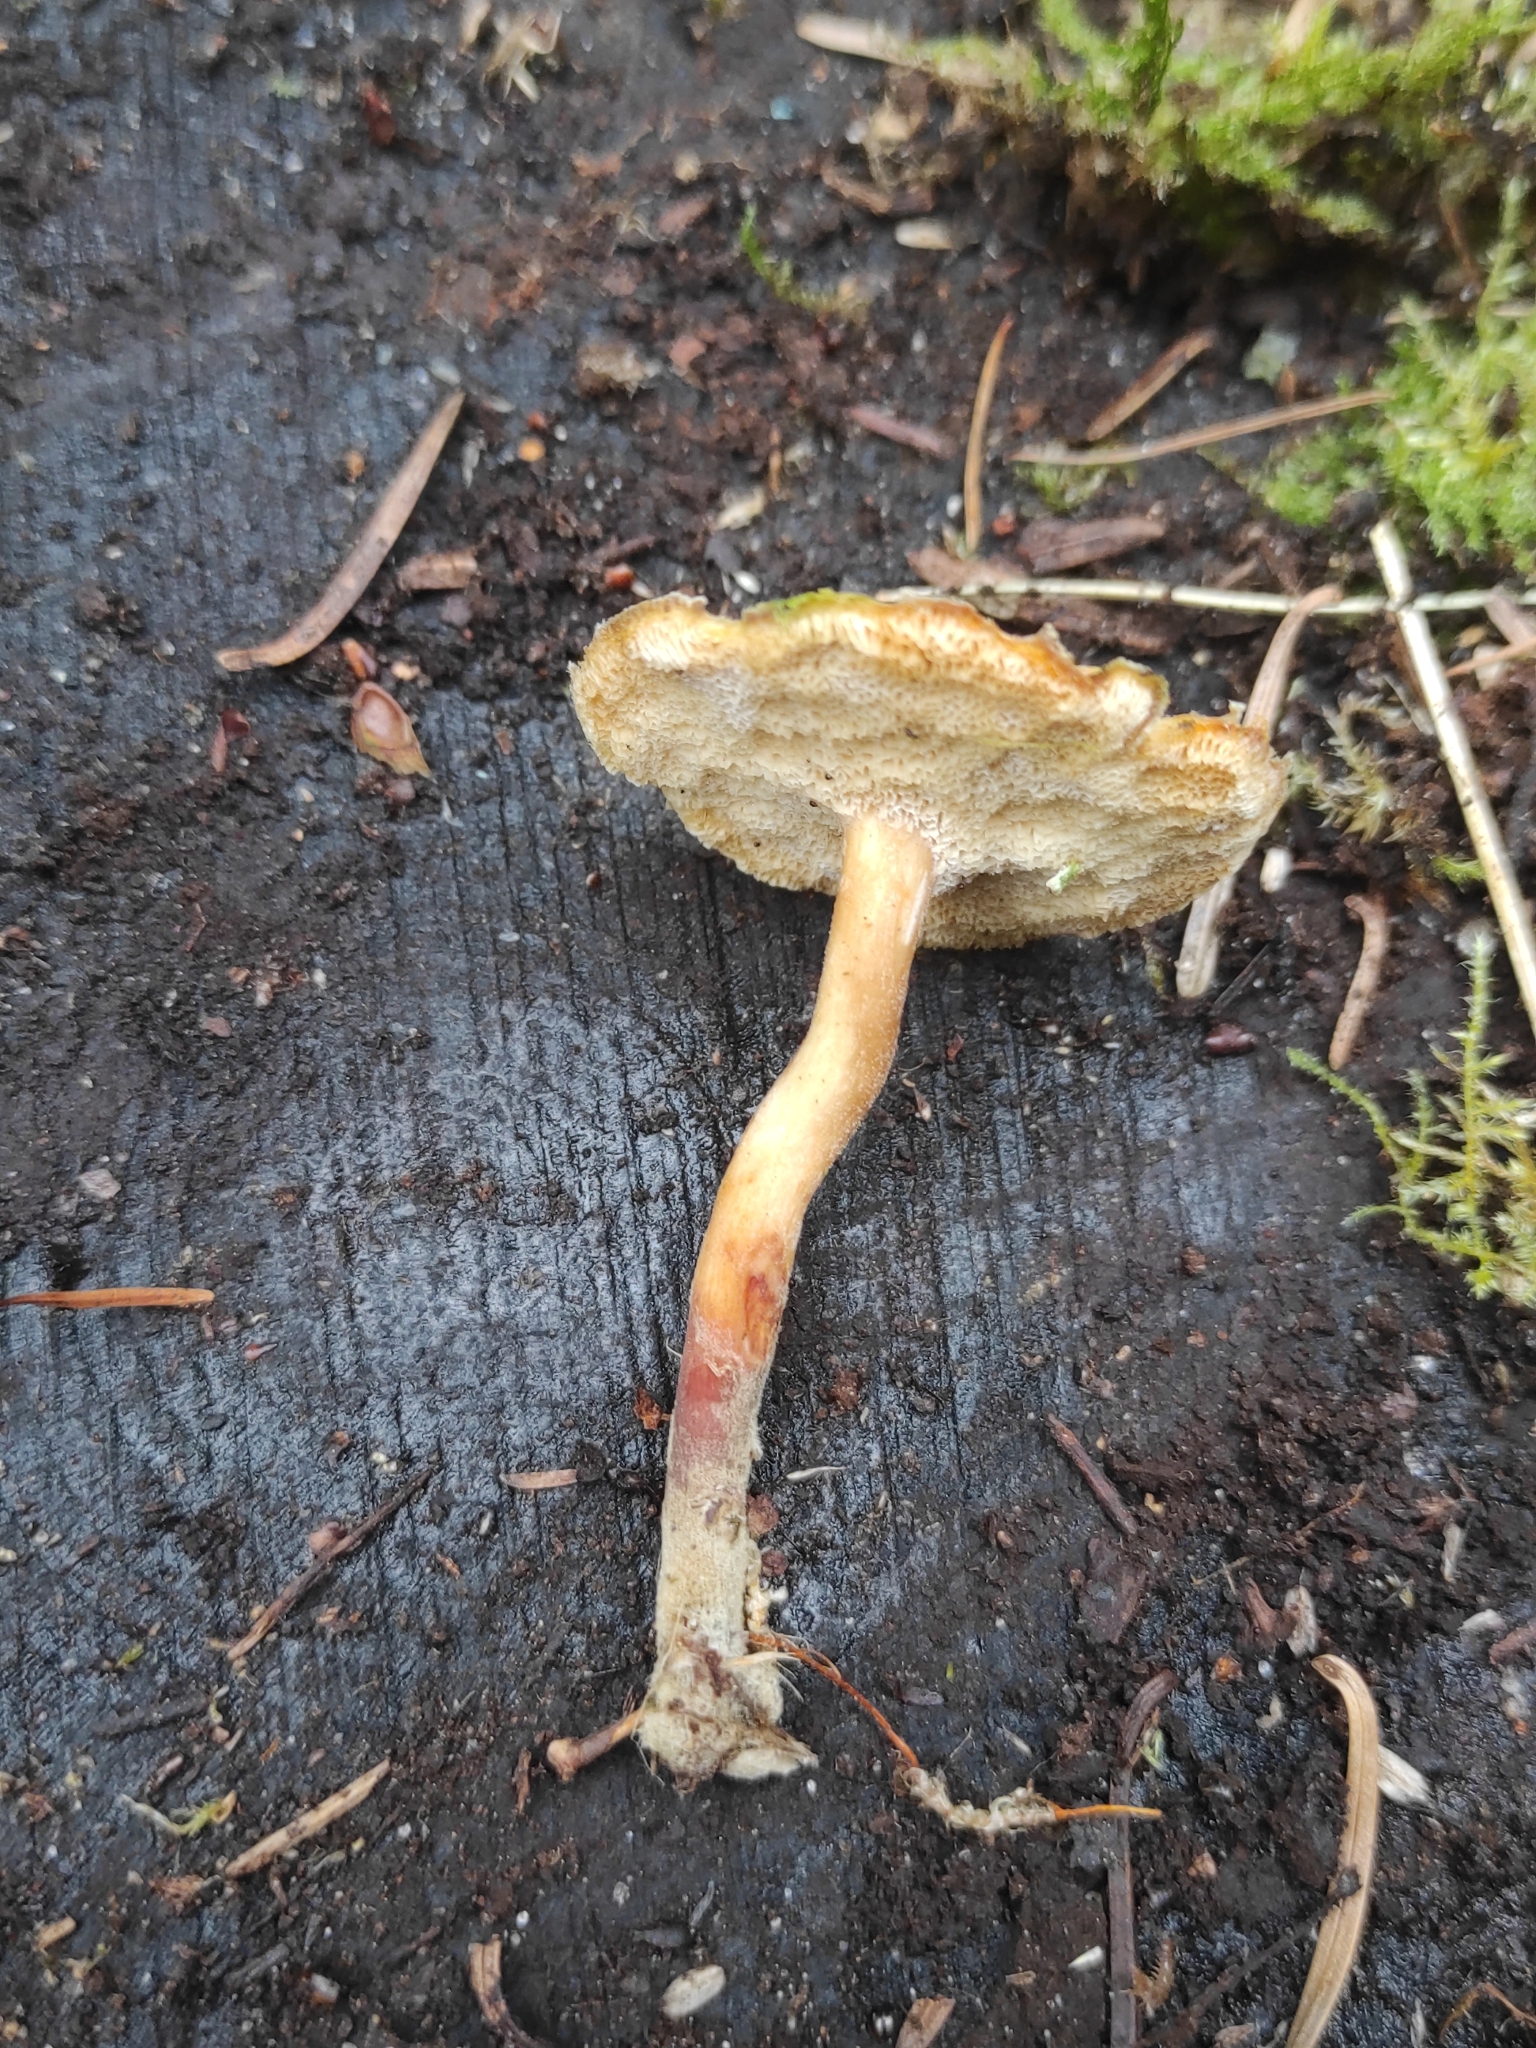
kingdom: Fungi
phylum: Basidiomycota
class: Agaricomycetes
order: Polyporales
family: Polyporaceae
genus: Lentinus
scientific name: Lentinus brumalis
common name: Winter polypore
